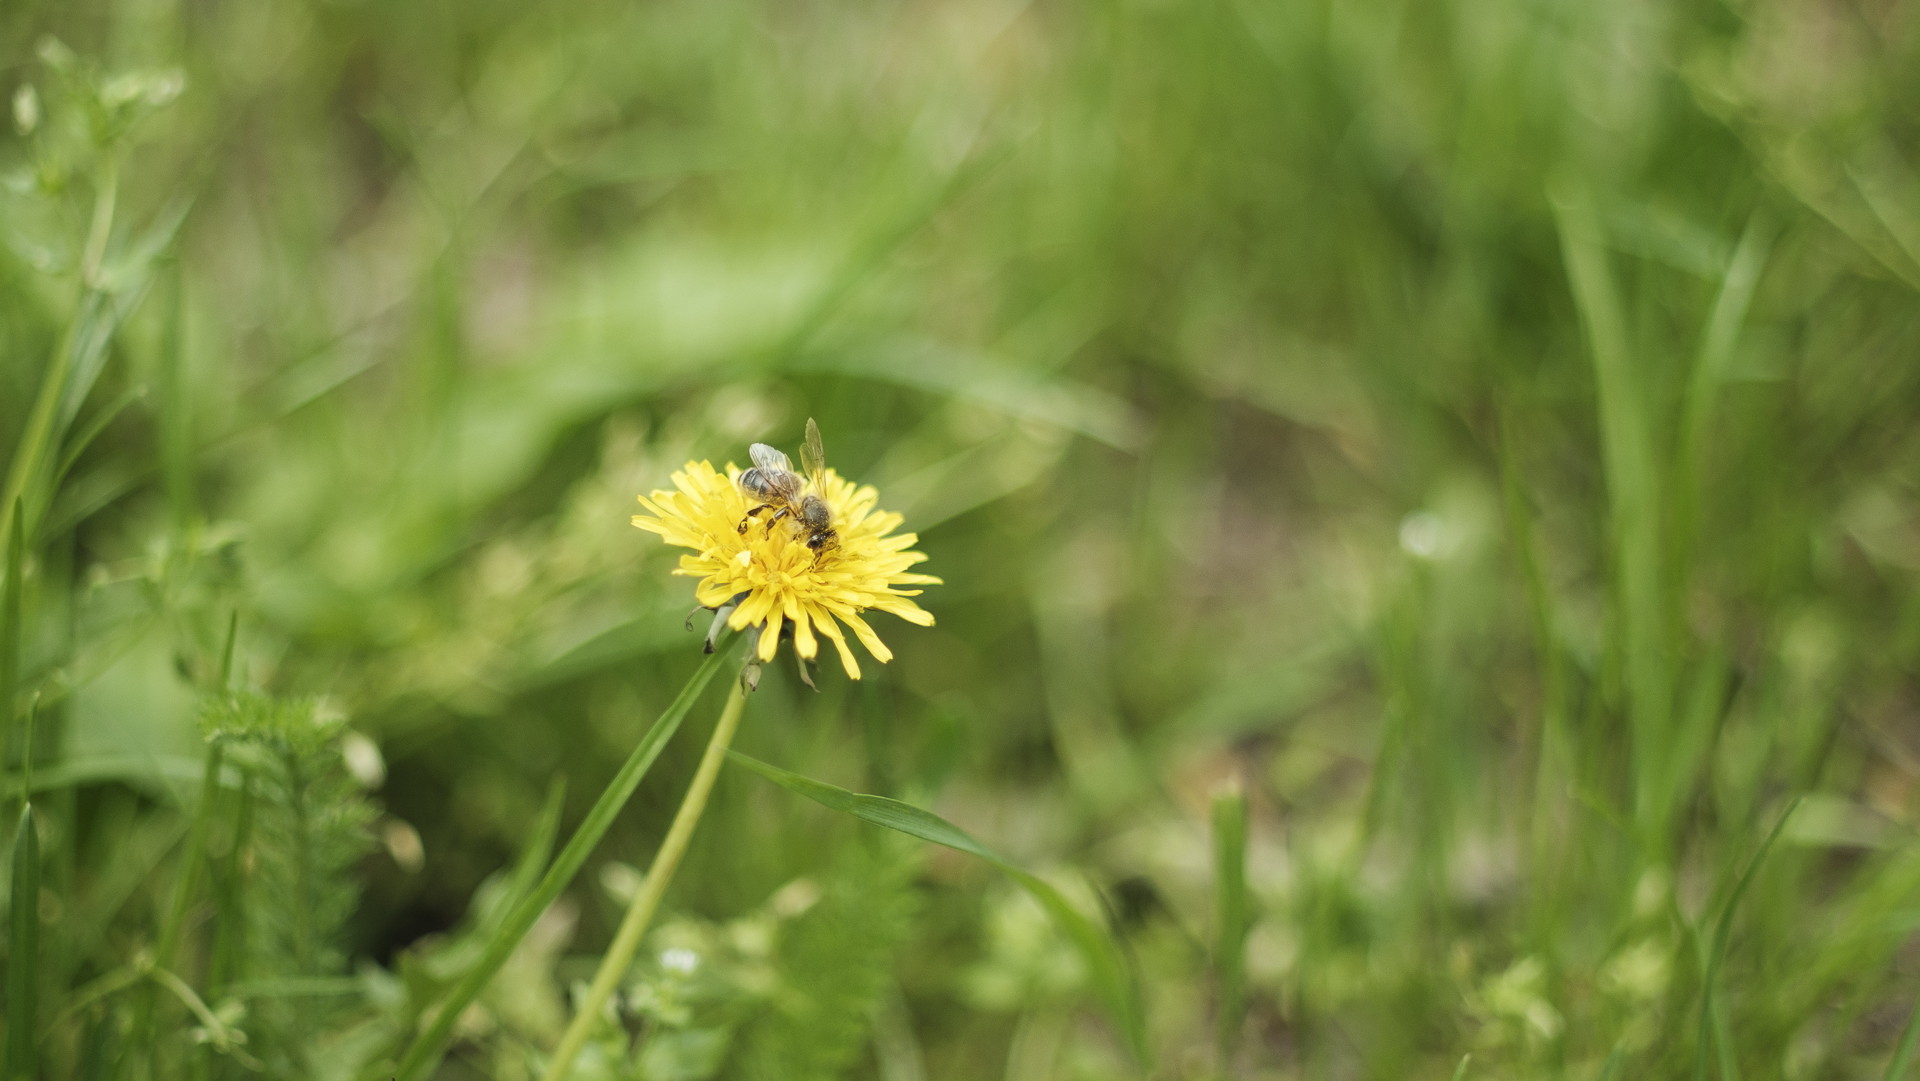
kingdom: Animalia
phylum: Arthropoda
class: Insecta
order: Hymenoptera
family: Apidae
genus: Apis
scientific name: Apis mellifera
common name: Honey bee
